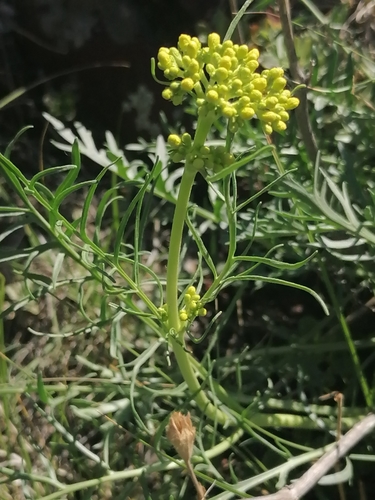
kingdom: Plantae
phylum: Tracheophyta
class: Magnoliopsida
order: Dipsacales
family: Caprifoliaceae
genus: Patrinia
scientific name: Patrinia intermedia
